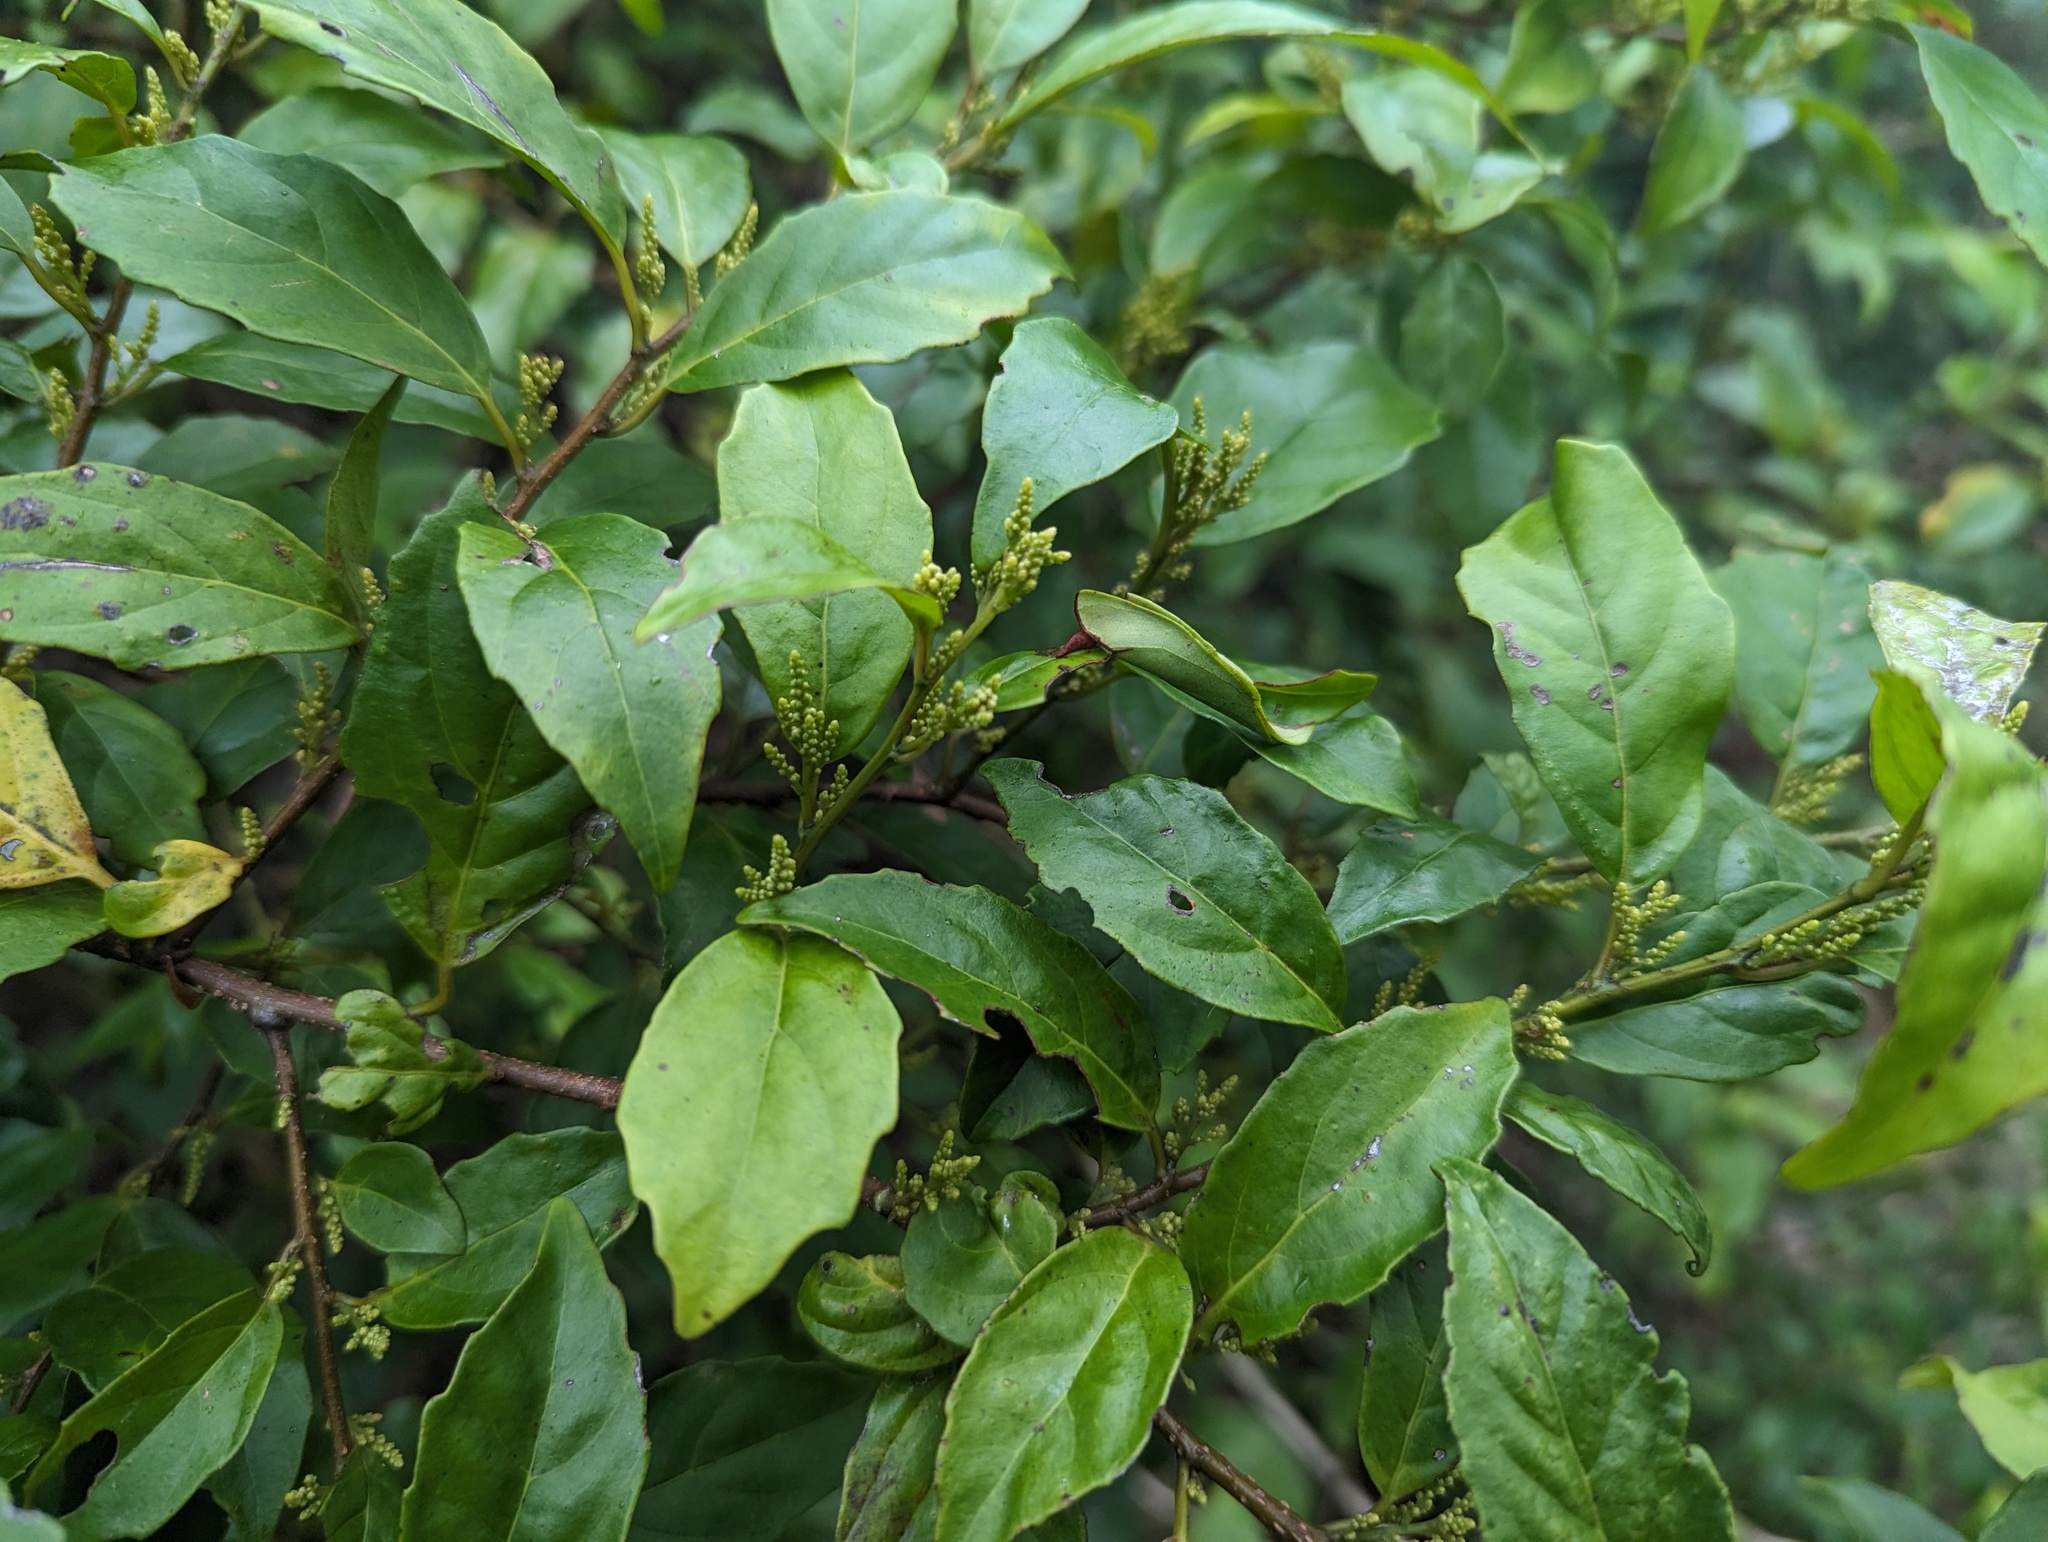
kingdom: Plantae
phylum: Tracheophyta
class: Magnoliopsida
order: Ericales
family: Primulaceae
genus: Maesa
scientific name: Maesa perlaria
